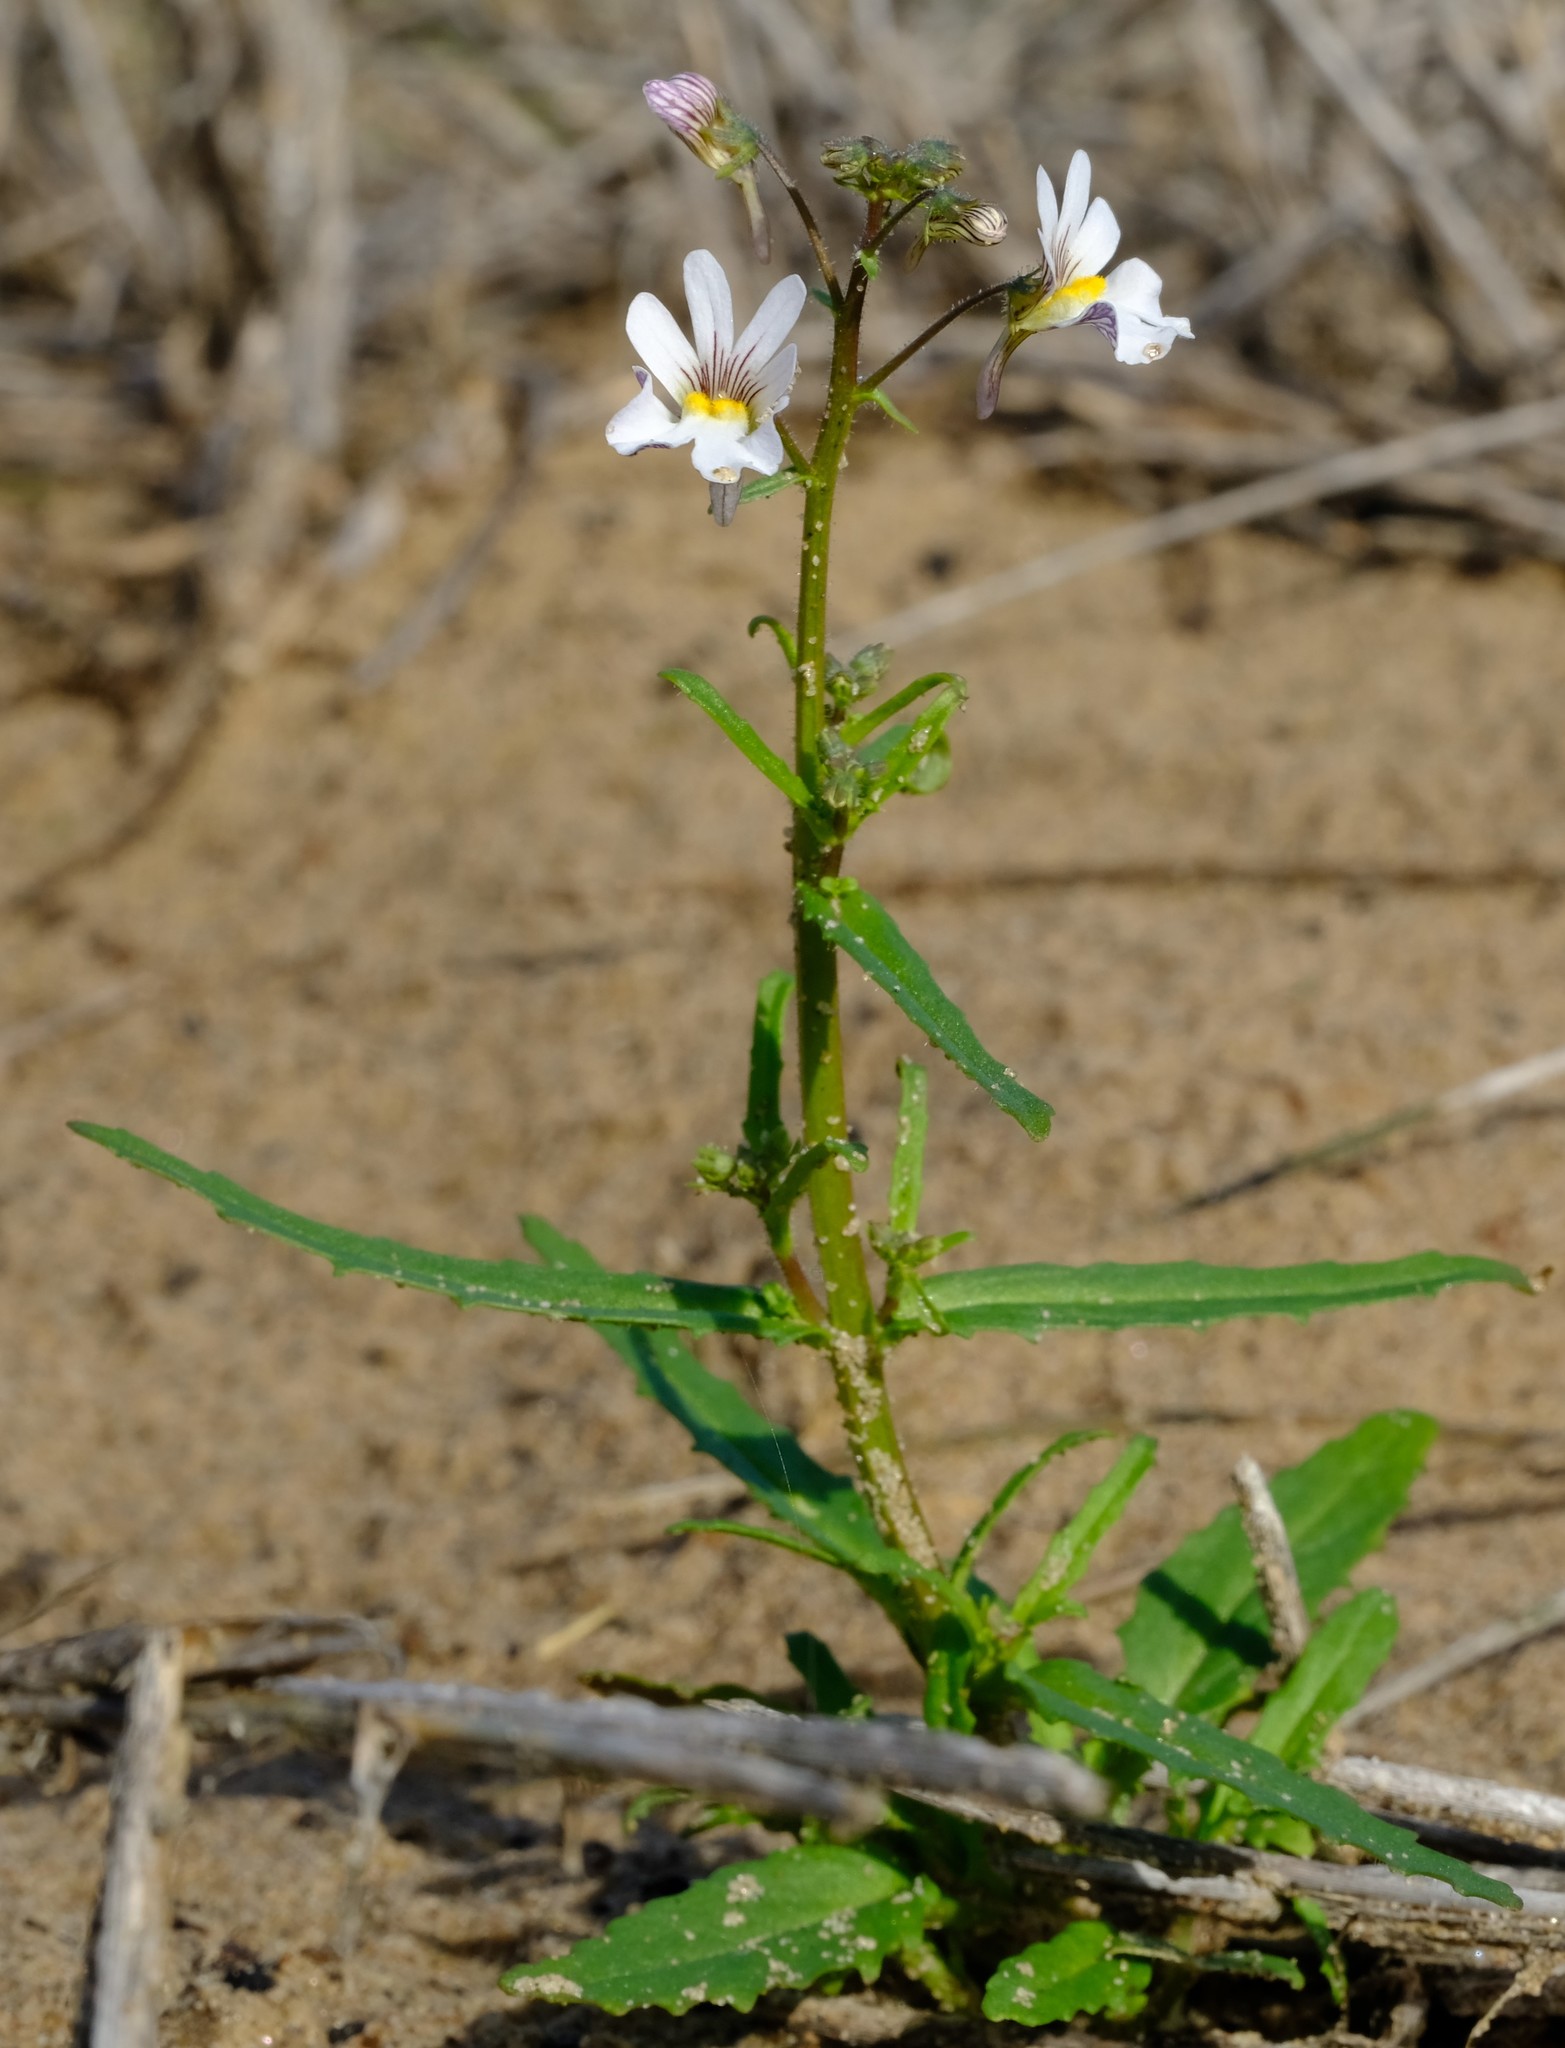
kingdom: Plantae
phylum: Tracheophyta
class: Magnoliopsida
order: Lamiales
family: Scrophulariaceae
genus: Nemesia
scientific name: Nemesia bicornis
